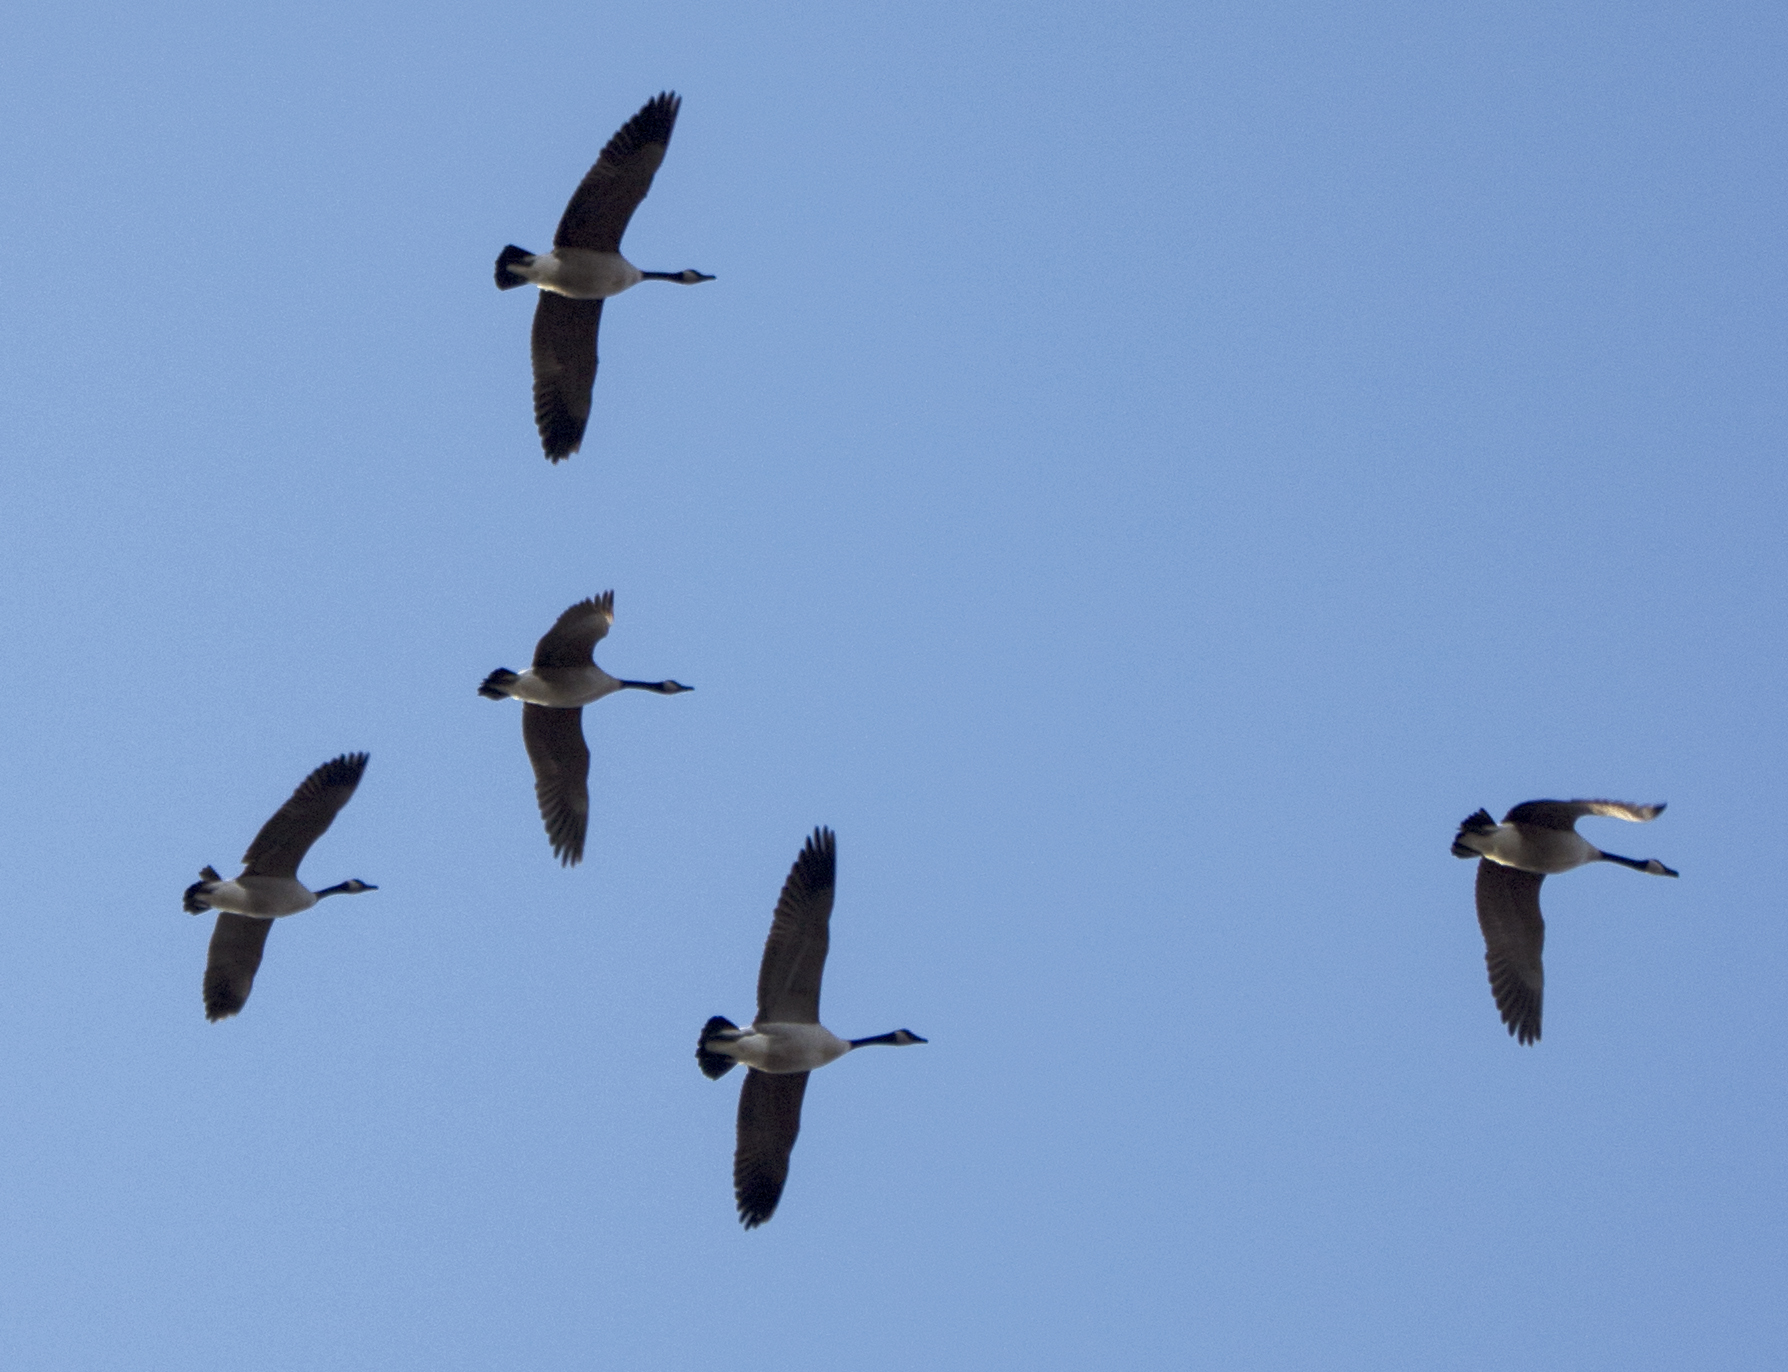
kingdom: Animalia
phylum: Chordata
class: Aves
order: Anseriformes
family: Anatidae
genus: Branta
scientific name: Branta canadensis
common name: Canada goose
